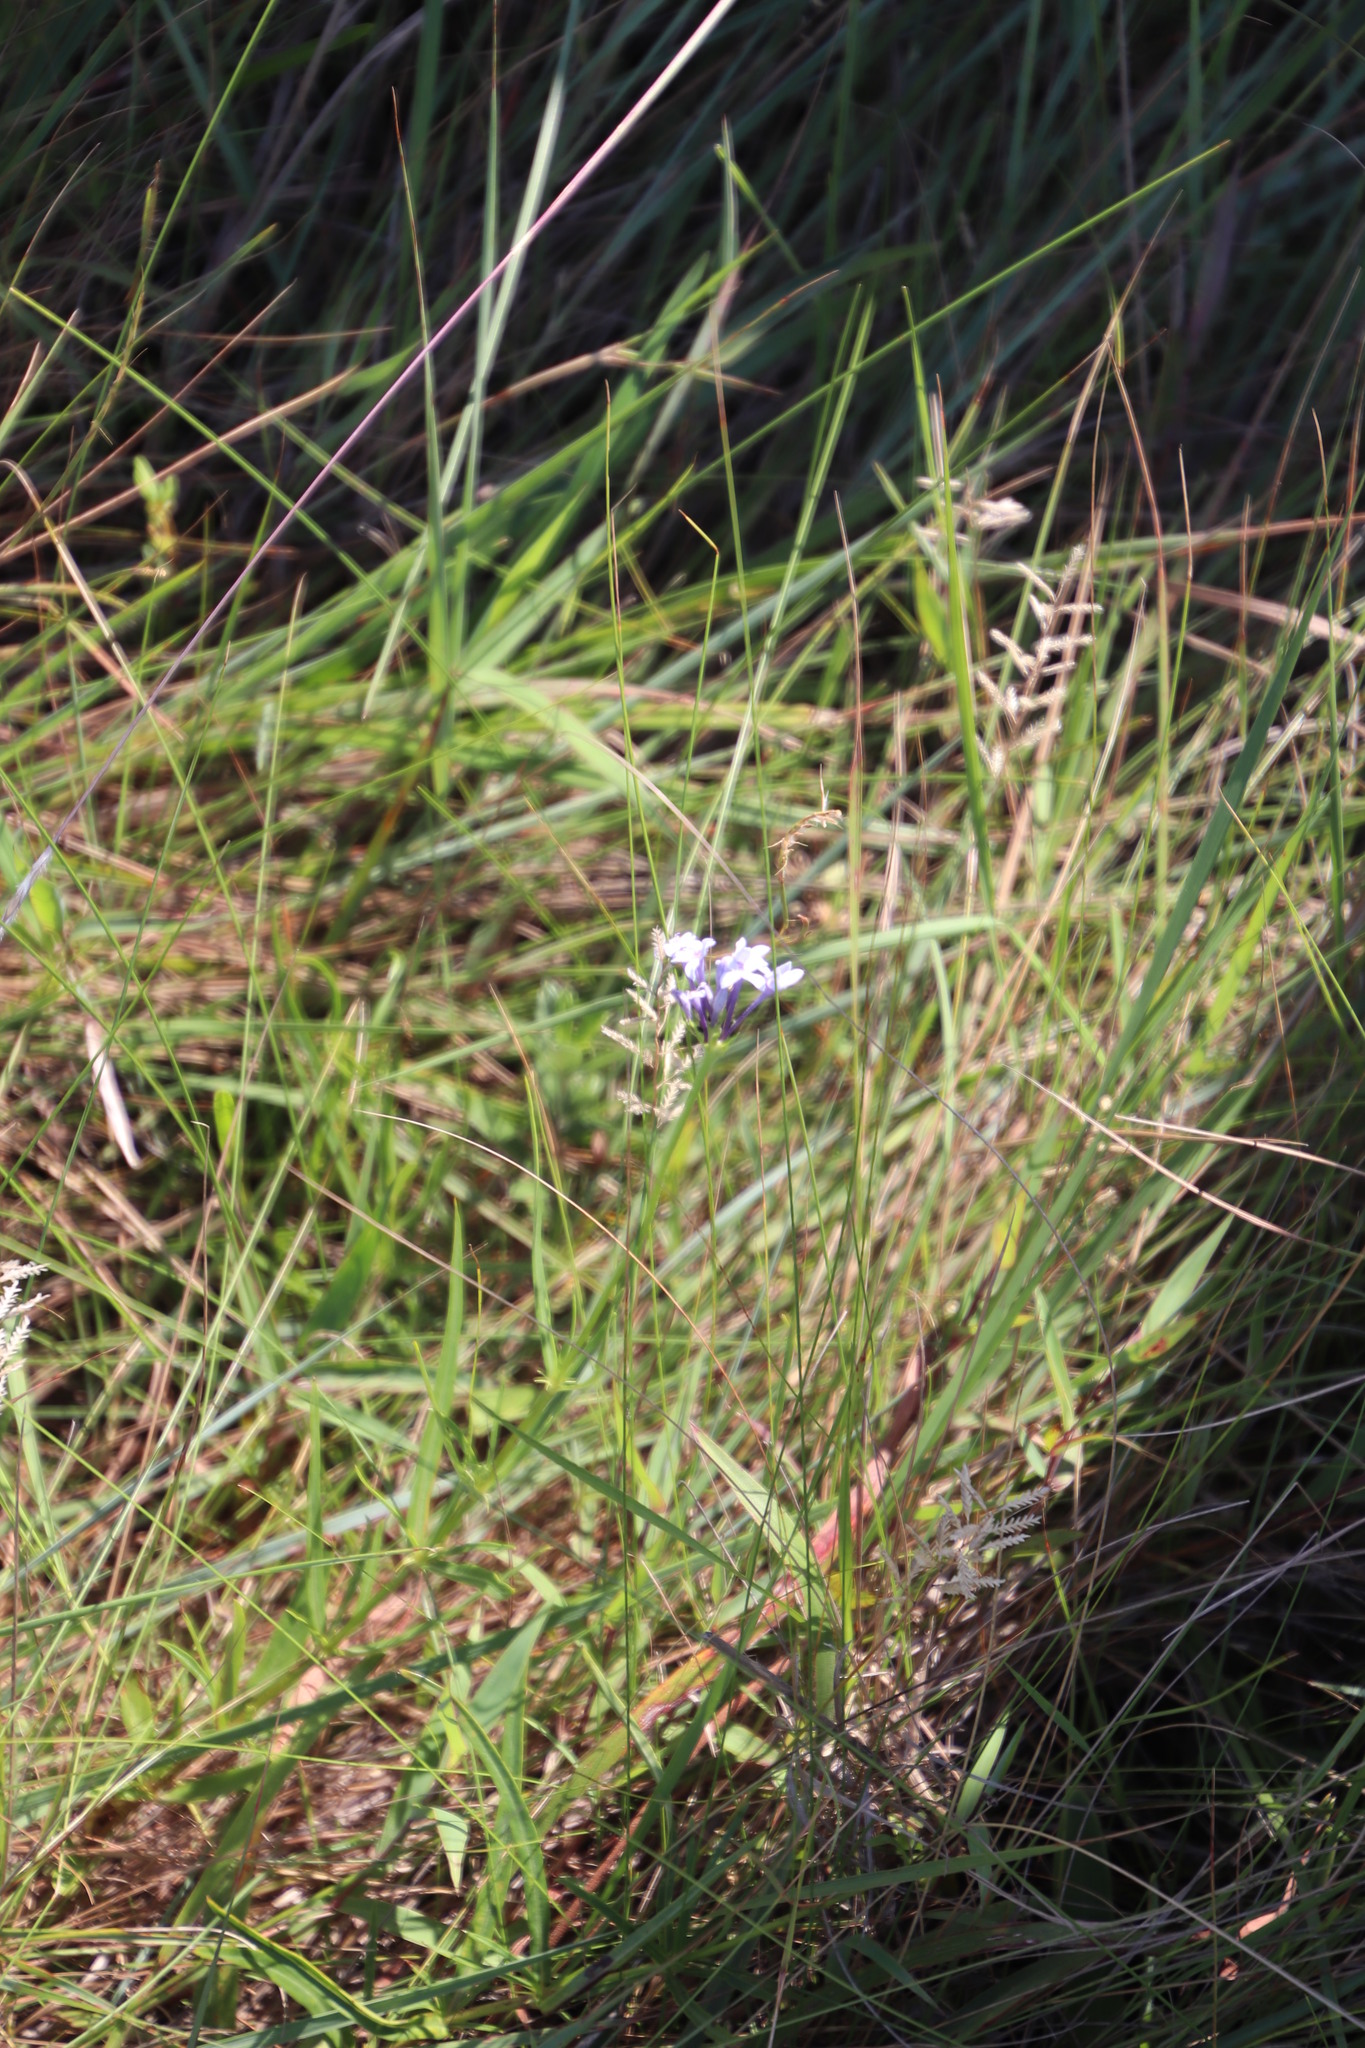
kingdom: Plantae
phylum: Tracheophyta
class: Magnoliopsida
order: Gentianales
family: Rubiaceae
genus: Pentanisia
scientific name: Pentanisia prunelloides
